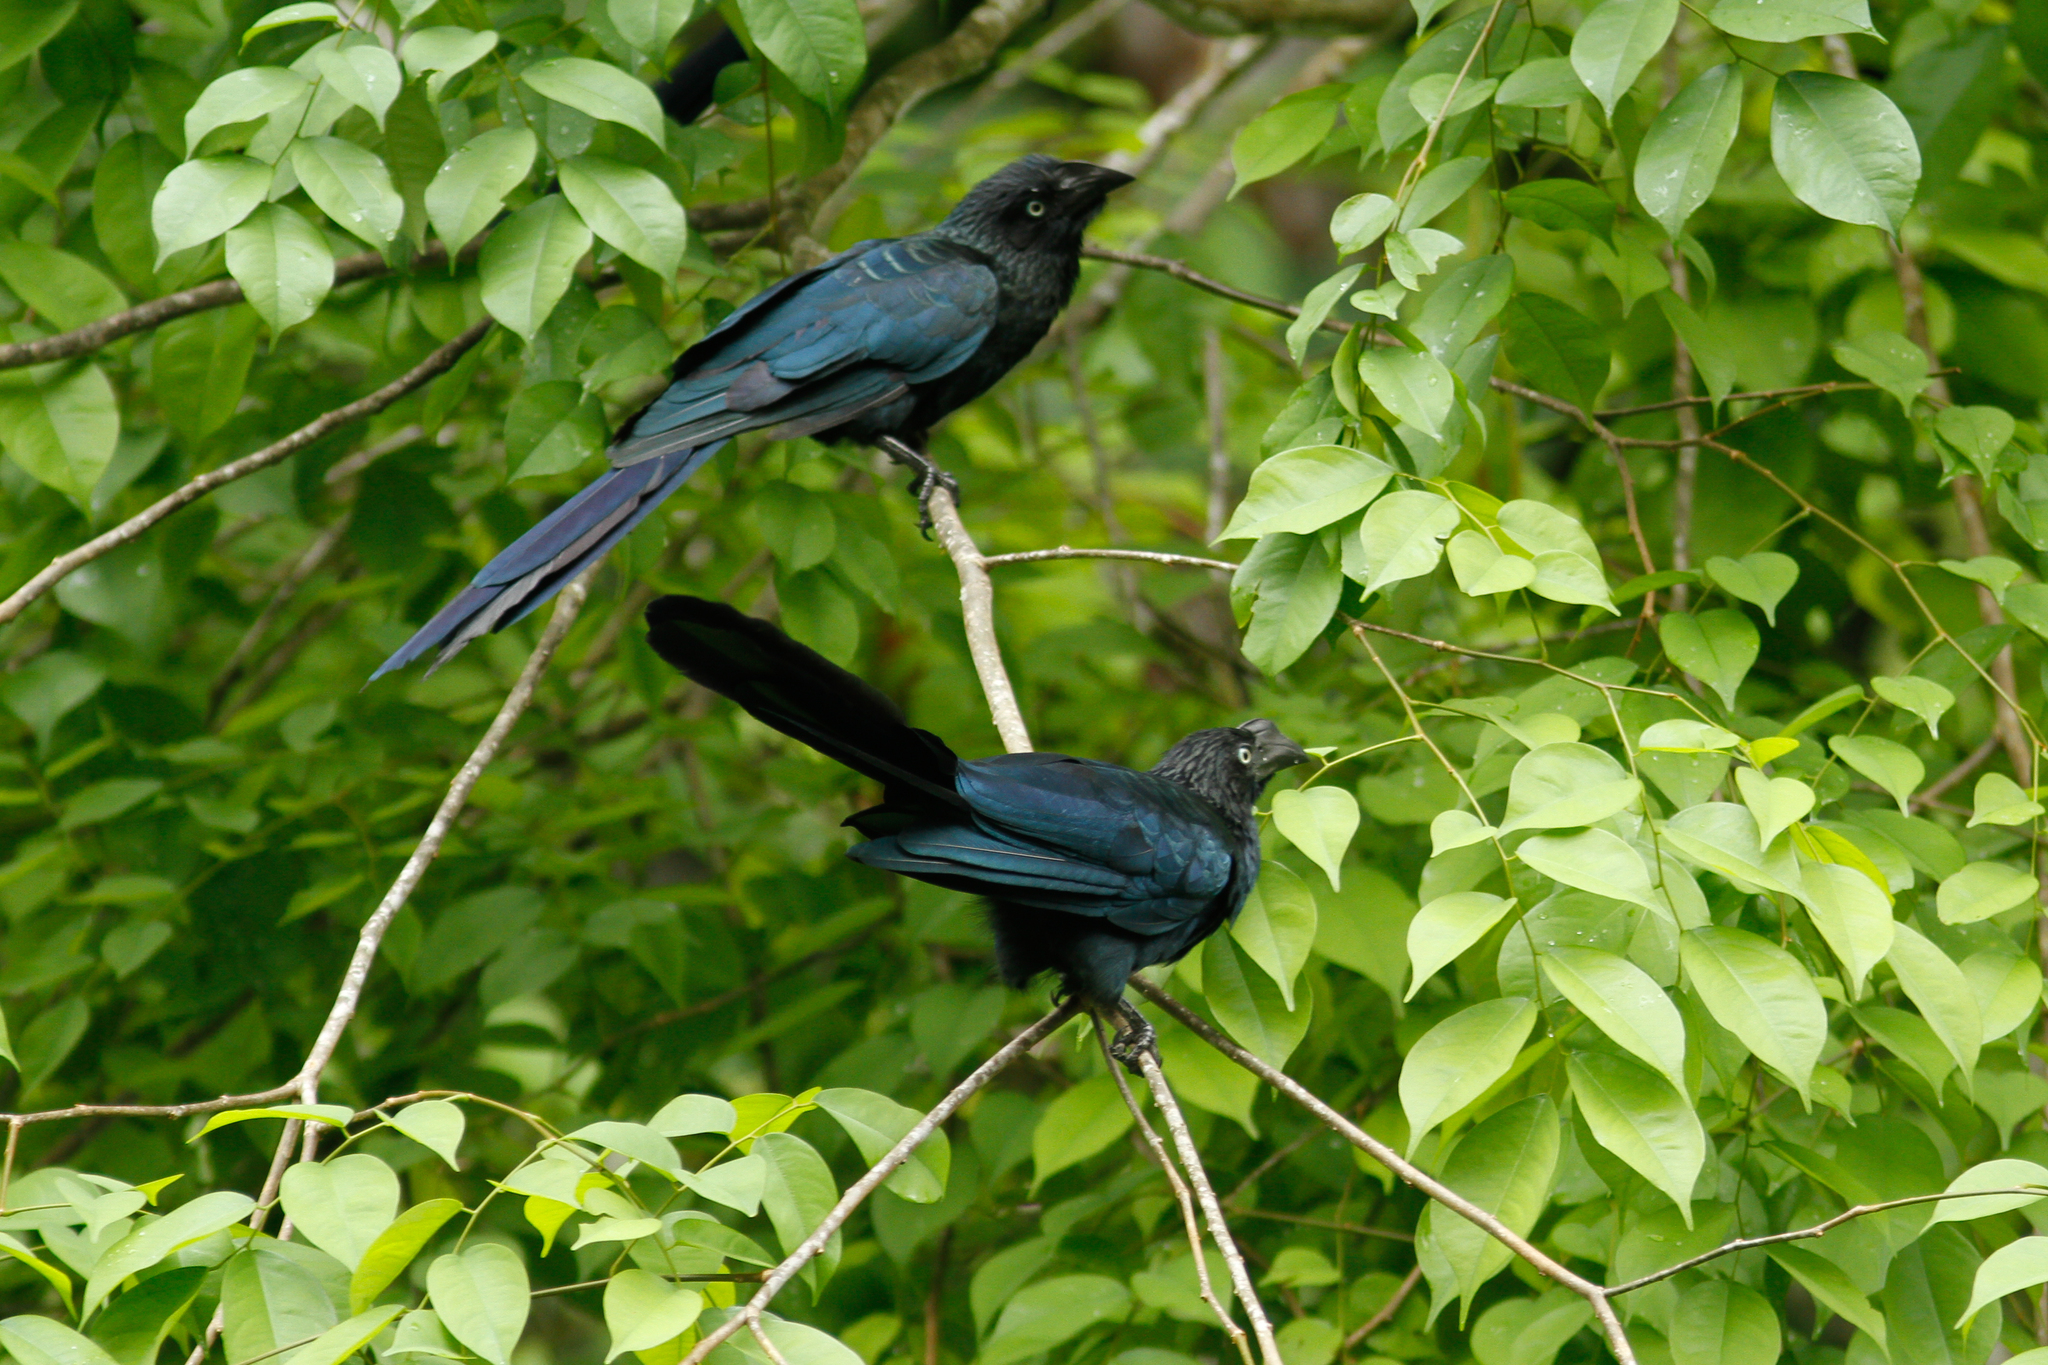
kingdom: Animalia
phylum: Chordata
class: Aves
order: Cuculiformes
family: Cuculidae
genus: Crotophaga
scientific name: Crotophaga major
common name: Greater ani
